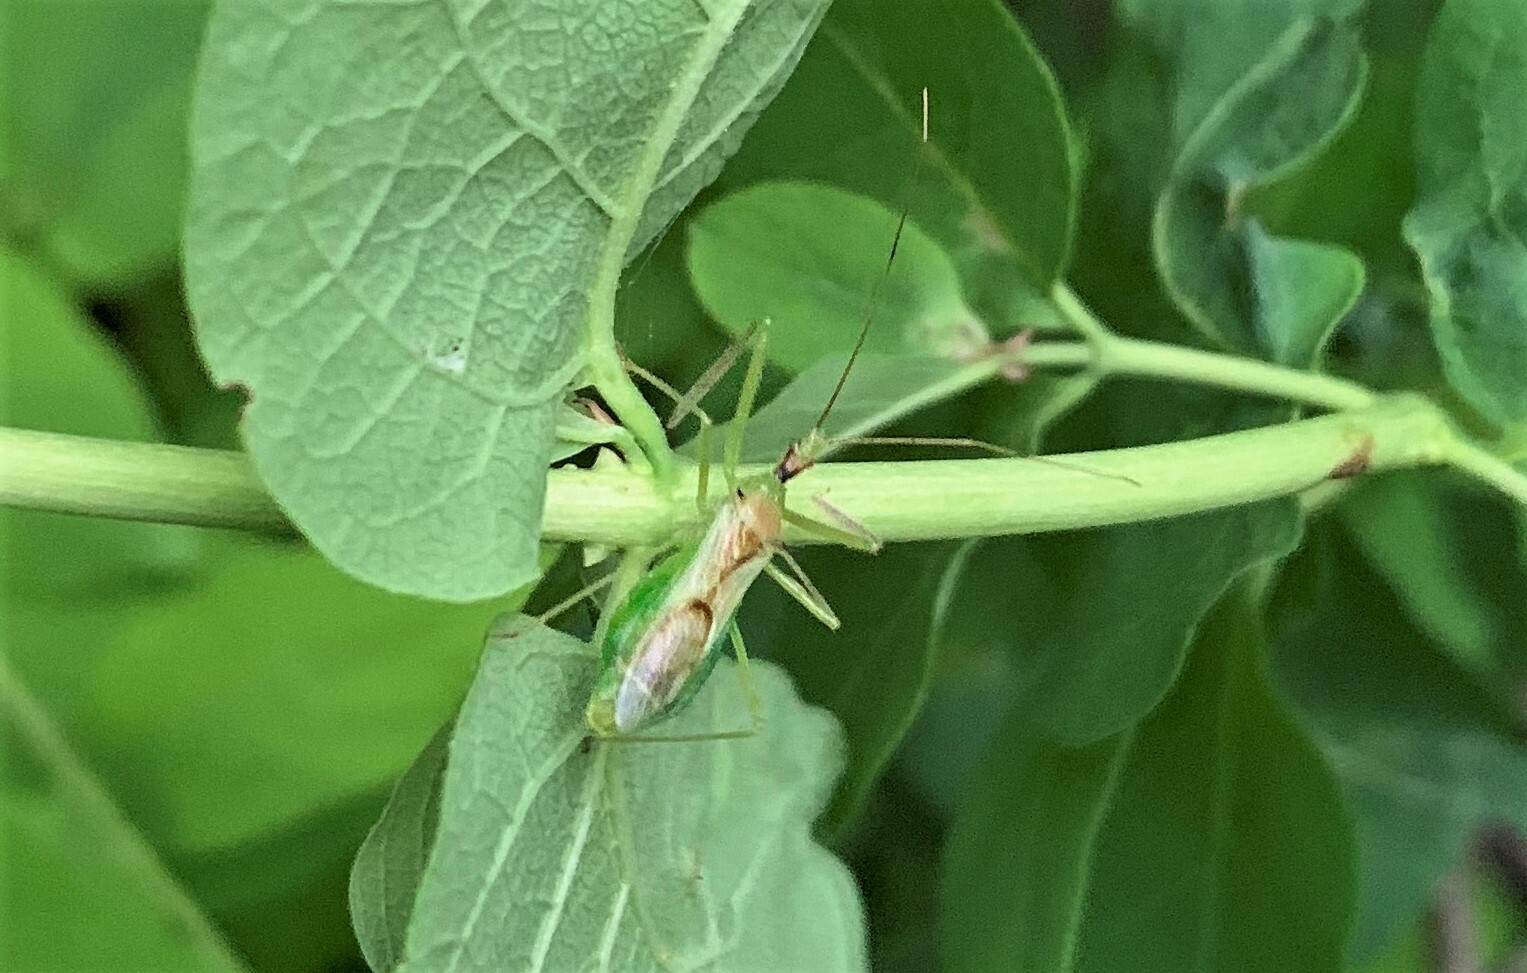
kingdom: Animalia
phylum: Arthropoda
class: Insecta
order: Hemiptera
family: Reduviidae
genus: Zelus
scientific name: Zelus luridus
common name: Pale green assassin bug
